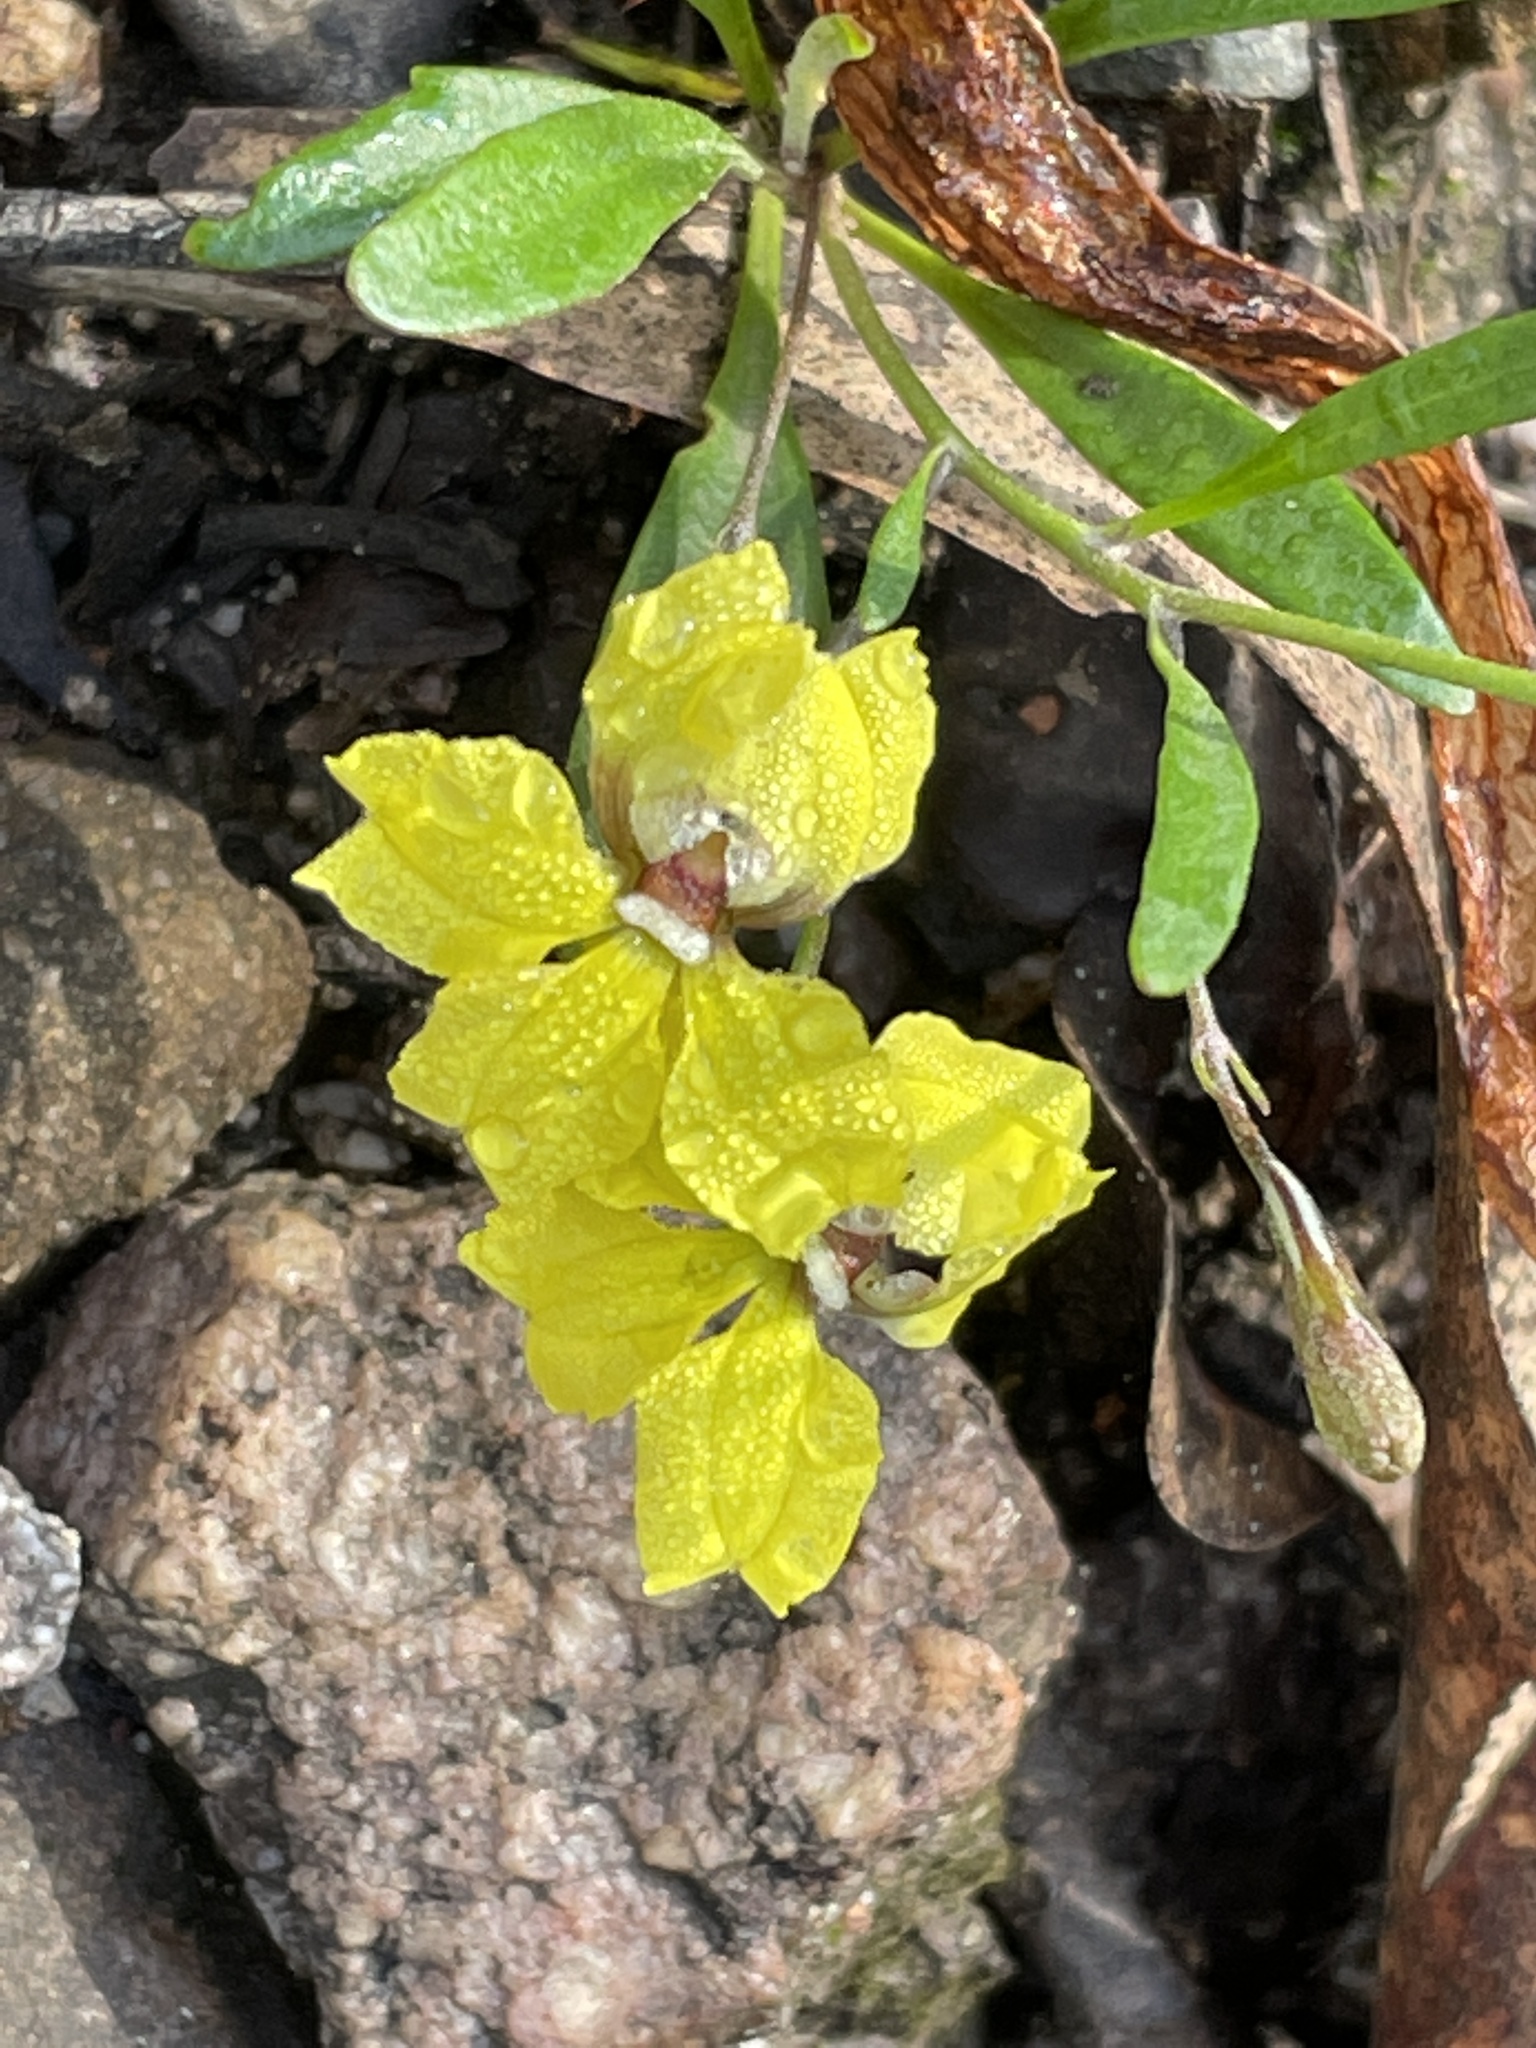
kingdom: Plantae
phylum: Tracheophyta
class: Magnoliopsida
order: Asterales
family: Goodeniaceae
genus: Goodenia
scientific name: Goodenia delicata
